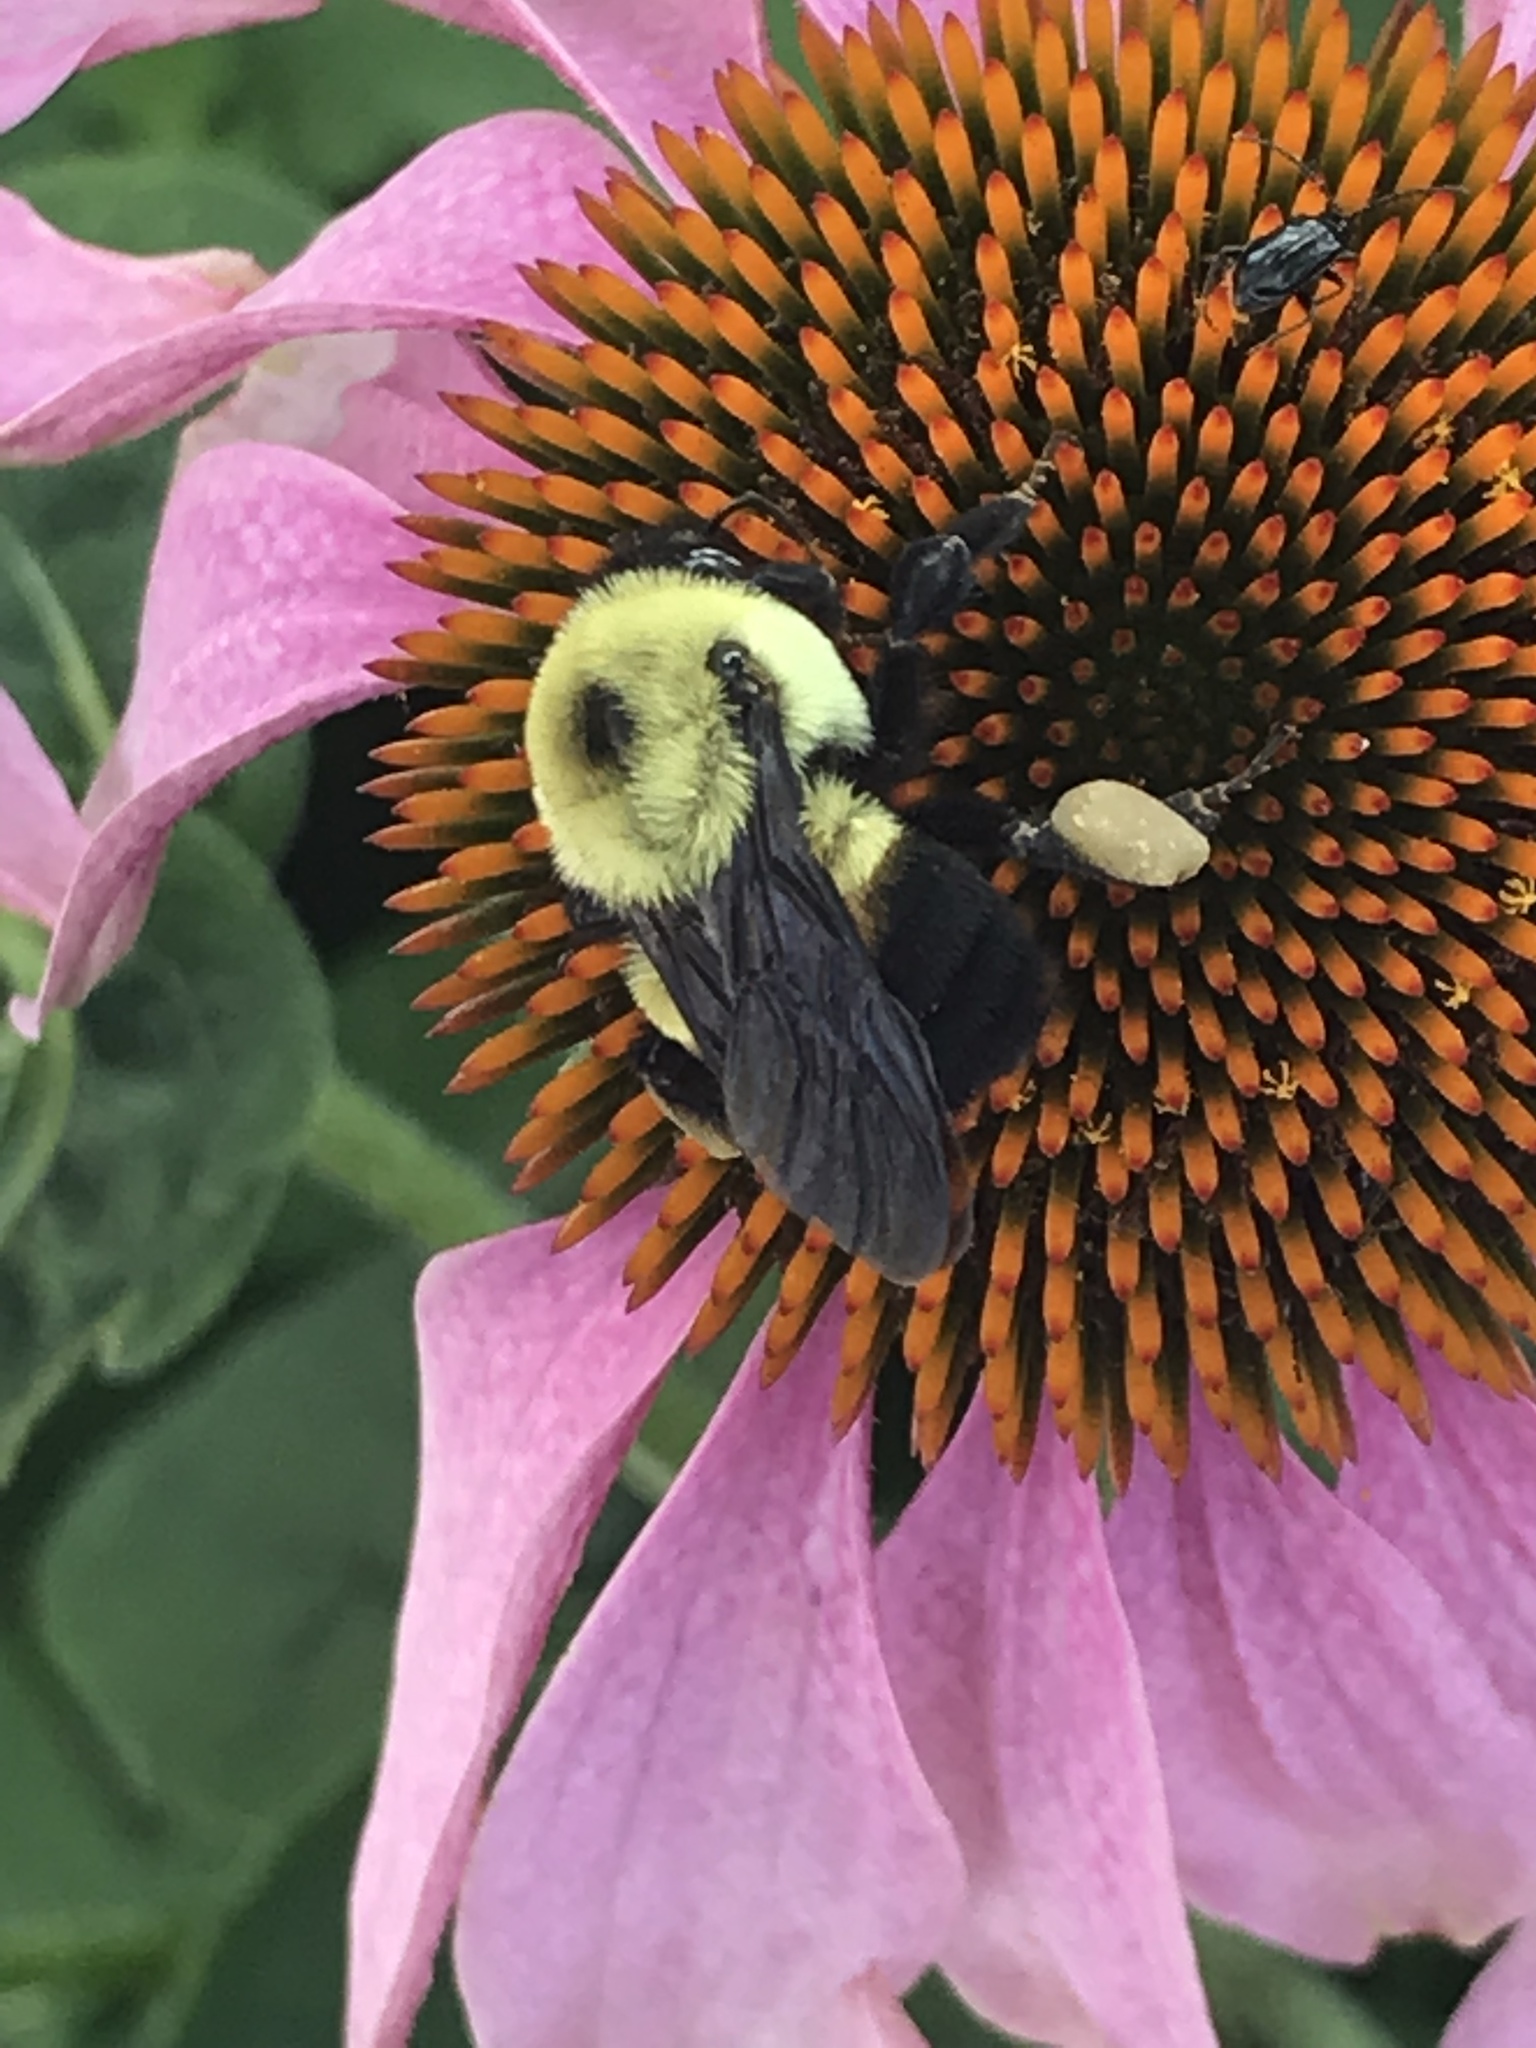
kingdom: Animalia
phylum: Arthropoda
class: Insecta
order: Hymenoptera
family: Apidae
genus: Bombus
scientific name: Bombus griseocollis
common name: Brown-belted bumble bee
